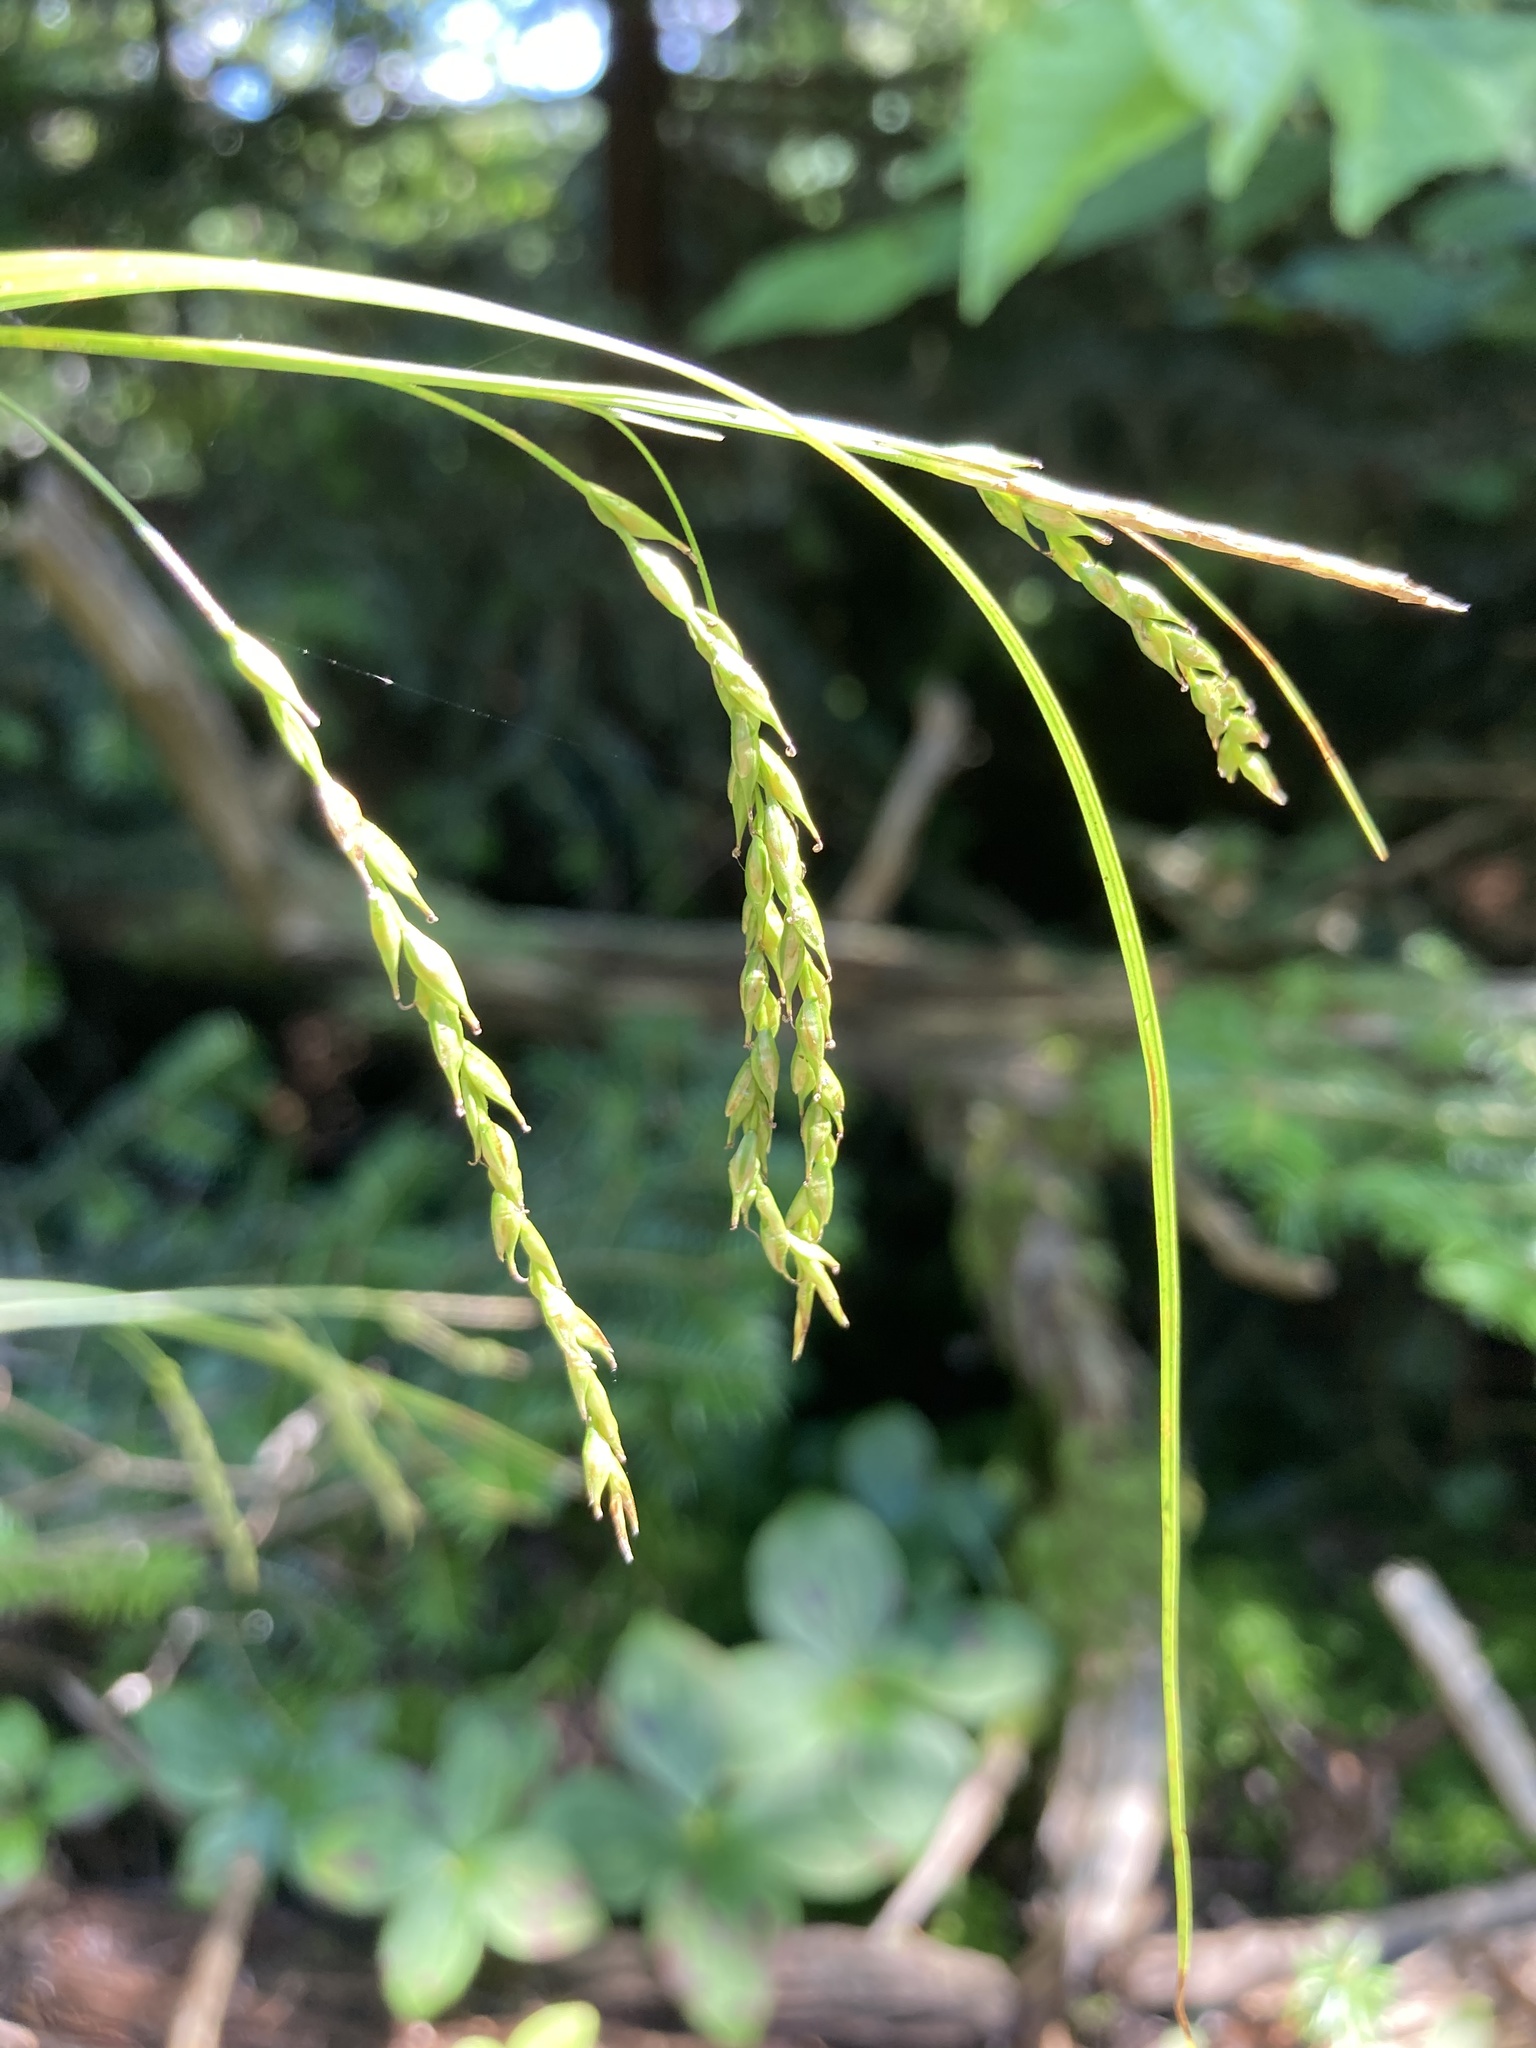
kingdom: Plantae
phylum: Tracheophyta
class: Liliopsida
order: Poales
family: Cyperaceae
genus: Carex
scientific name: Carex arctata
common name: Black sedge
